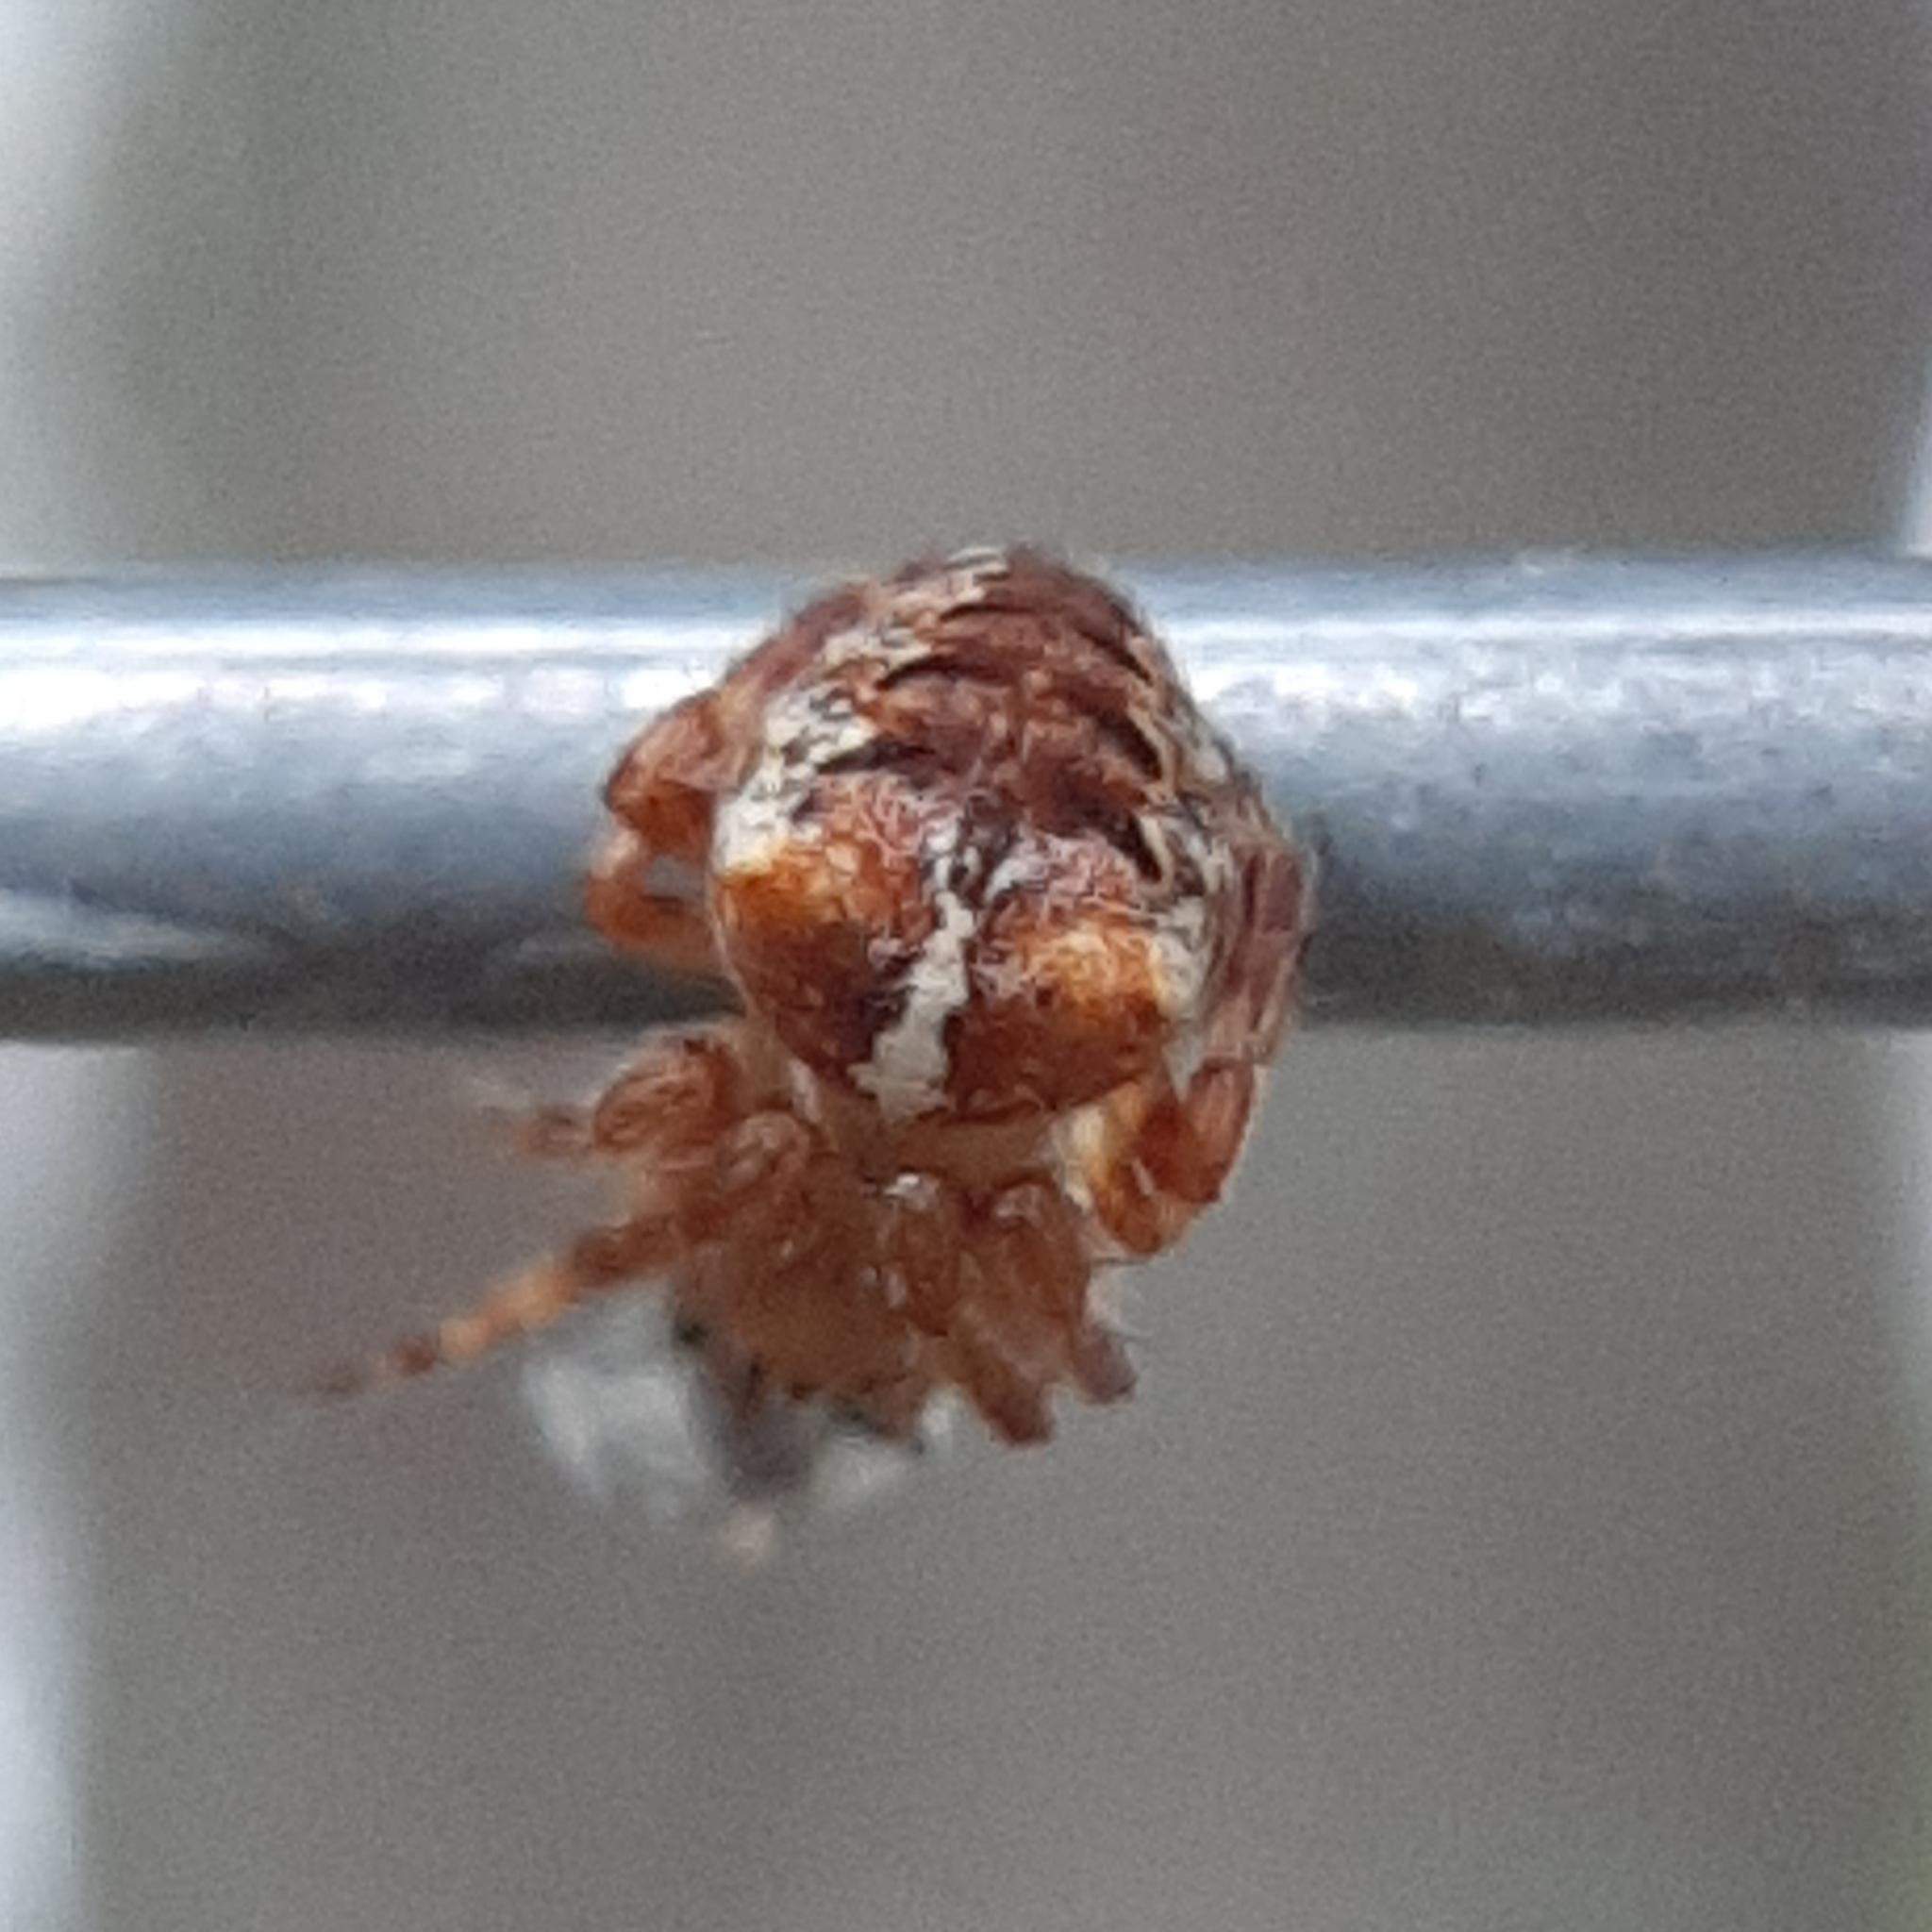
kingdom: Animalia
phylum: Arthropoda
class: Arachnida
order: Araneae
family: Araneidae
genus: Araneus
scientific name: Araneus saevus
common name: Fierce orbweaver
